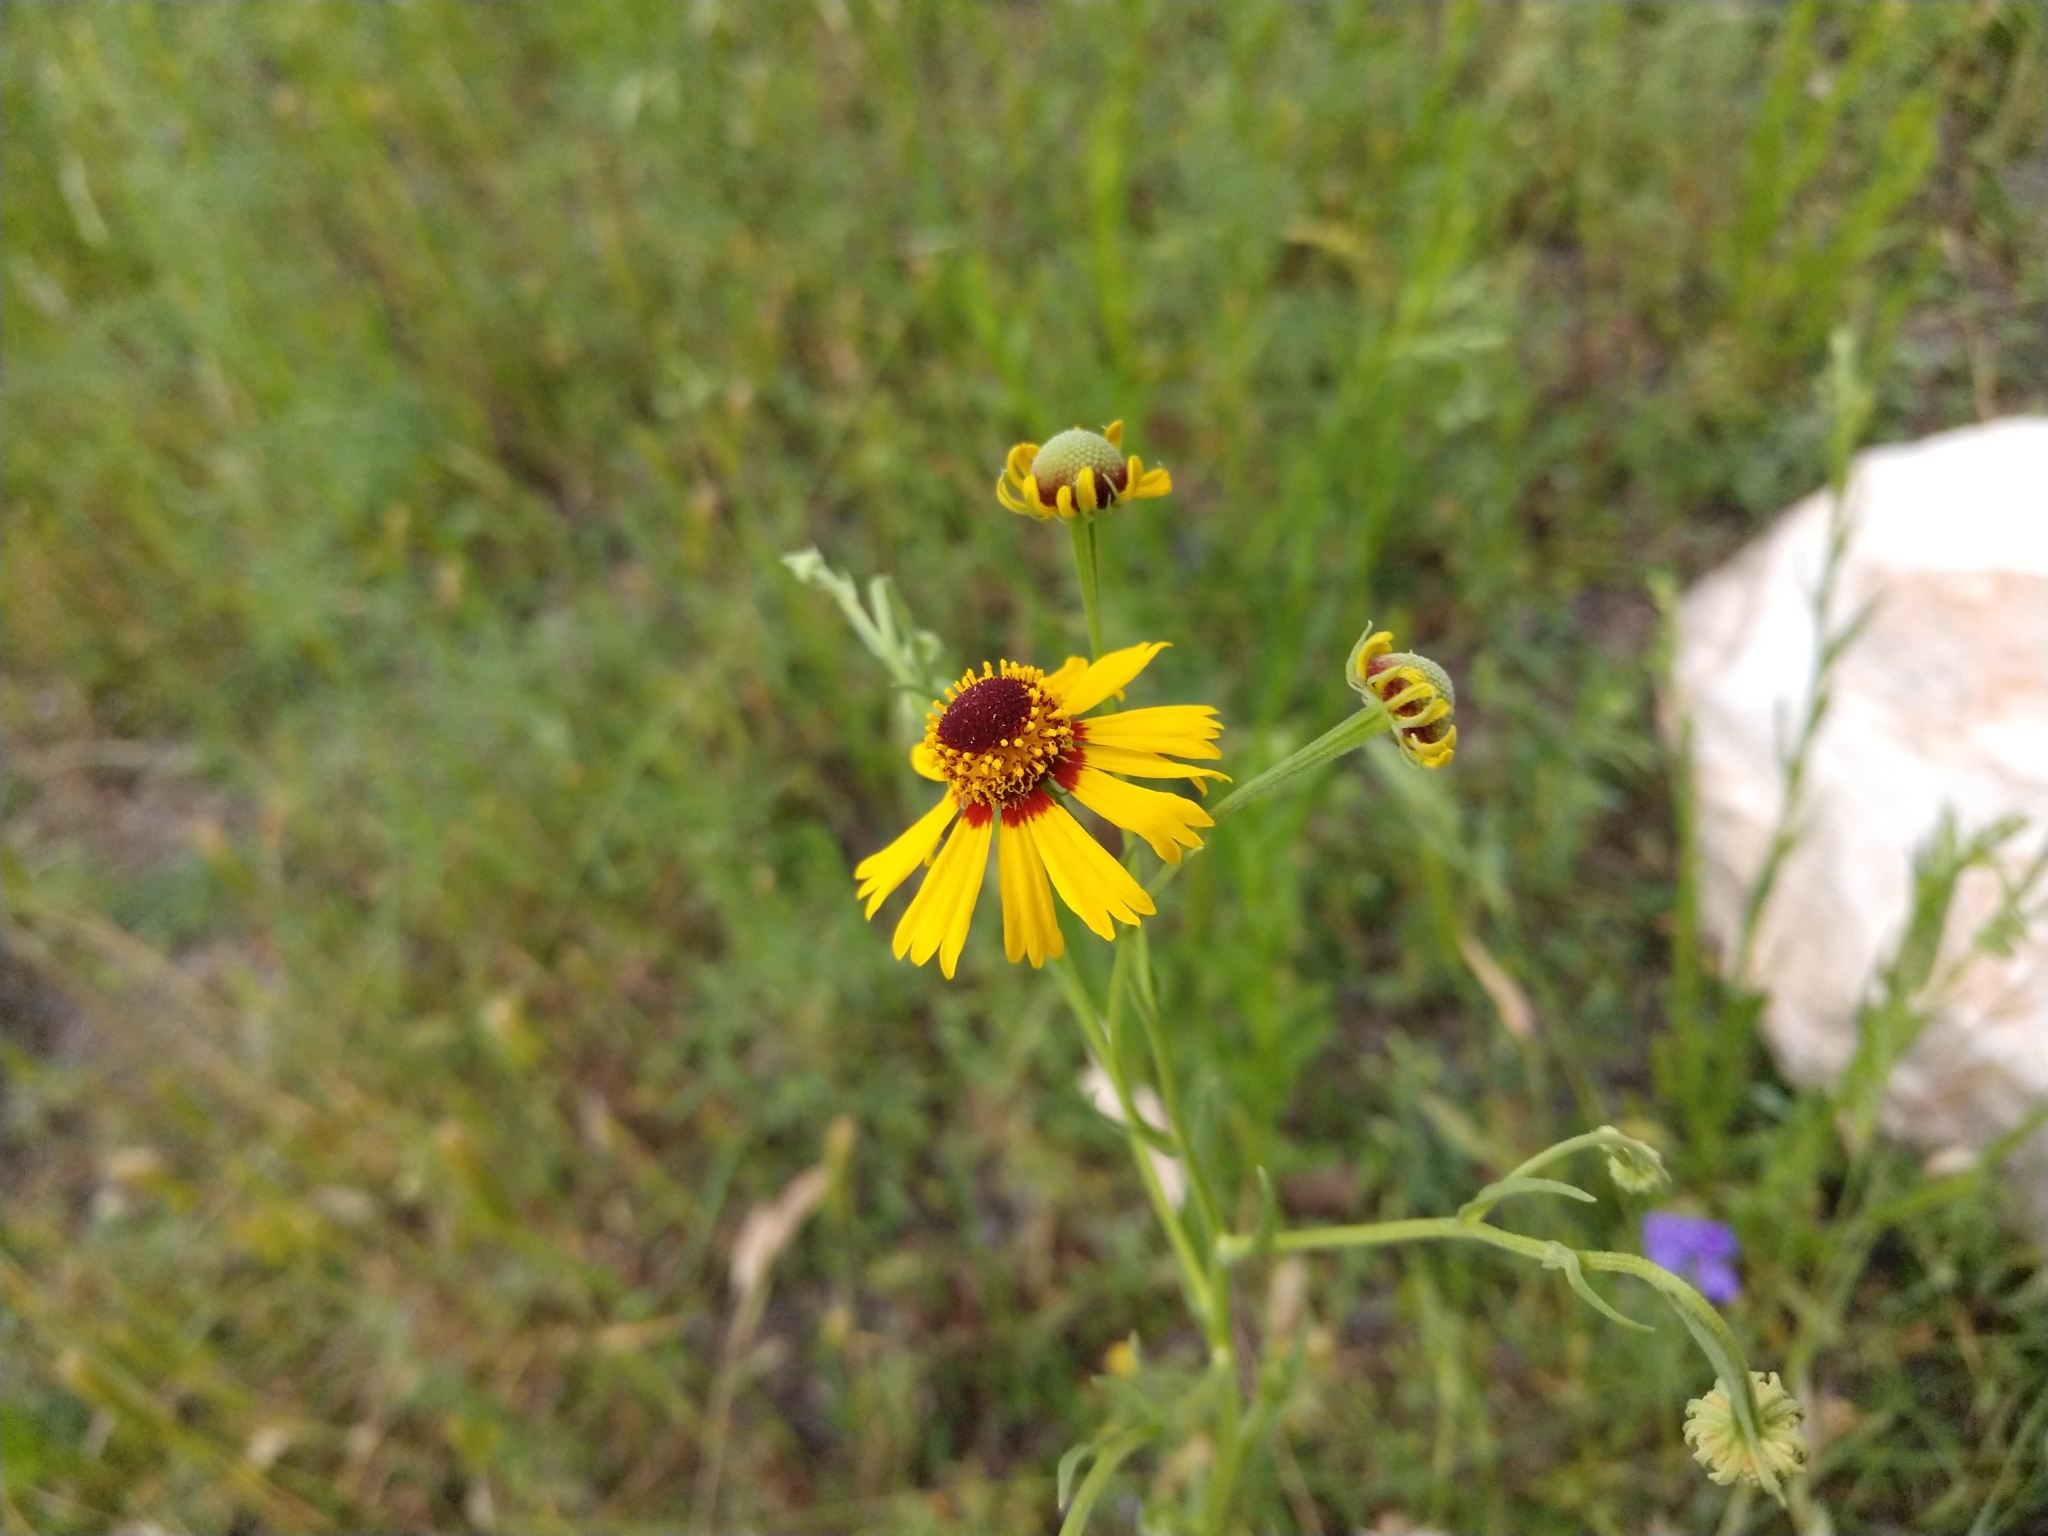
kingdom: Plantae
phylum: Tracheophyta
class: Magnoliopsida
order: Asterales
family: Asteraceae
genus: Helenium
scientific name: Helenium elegans
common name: Pretty sneezeweed
